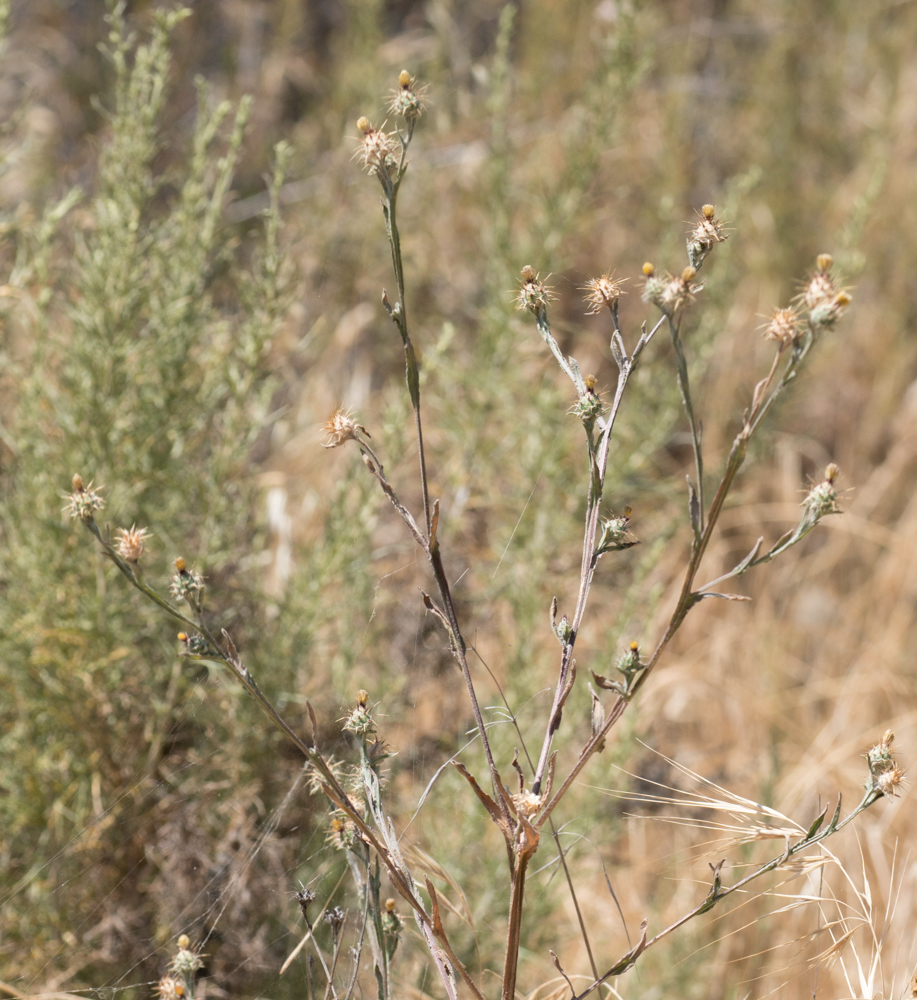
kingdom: Plantae
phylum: Tracheophyta
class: Magnoliopsida
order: Asterales
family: Asteraceae
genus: Centaurea
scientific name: Centaurea melitensis
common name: Maltese star-thistle
